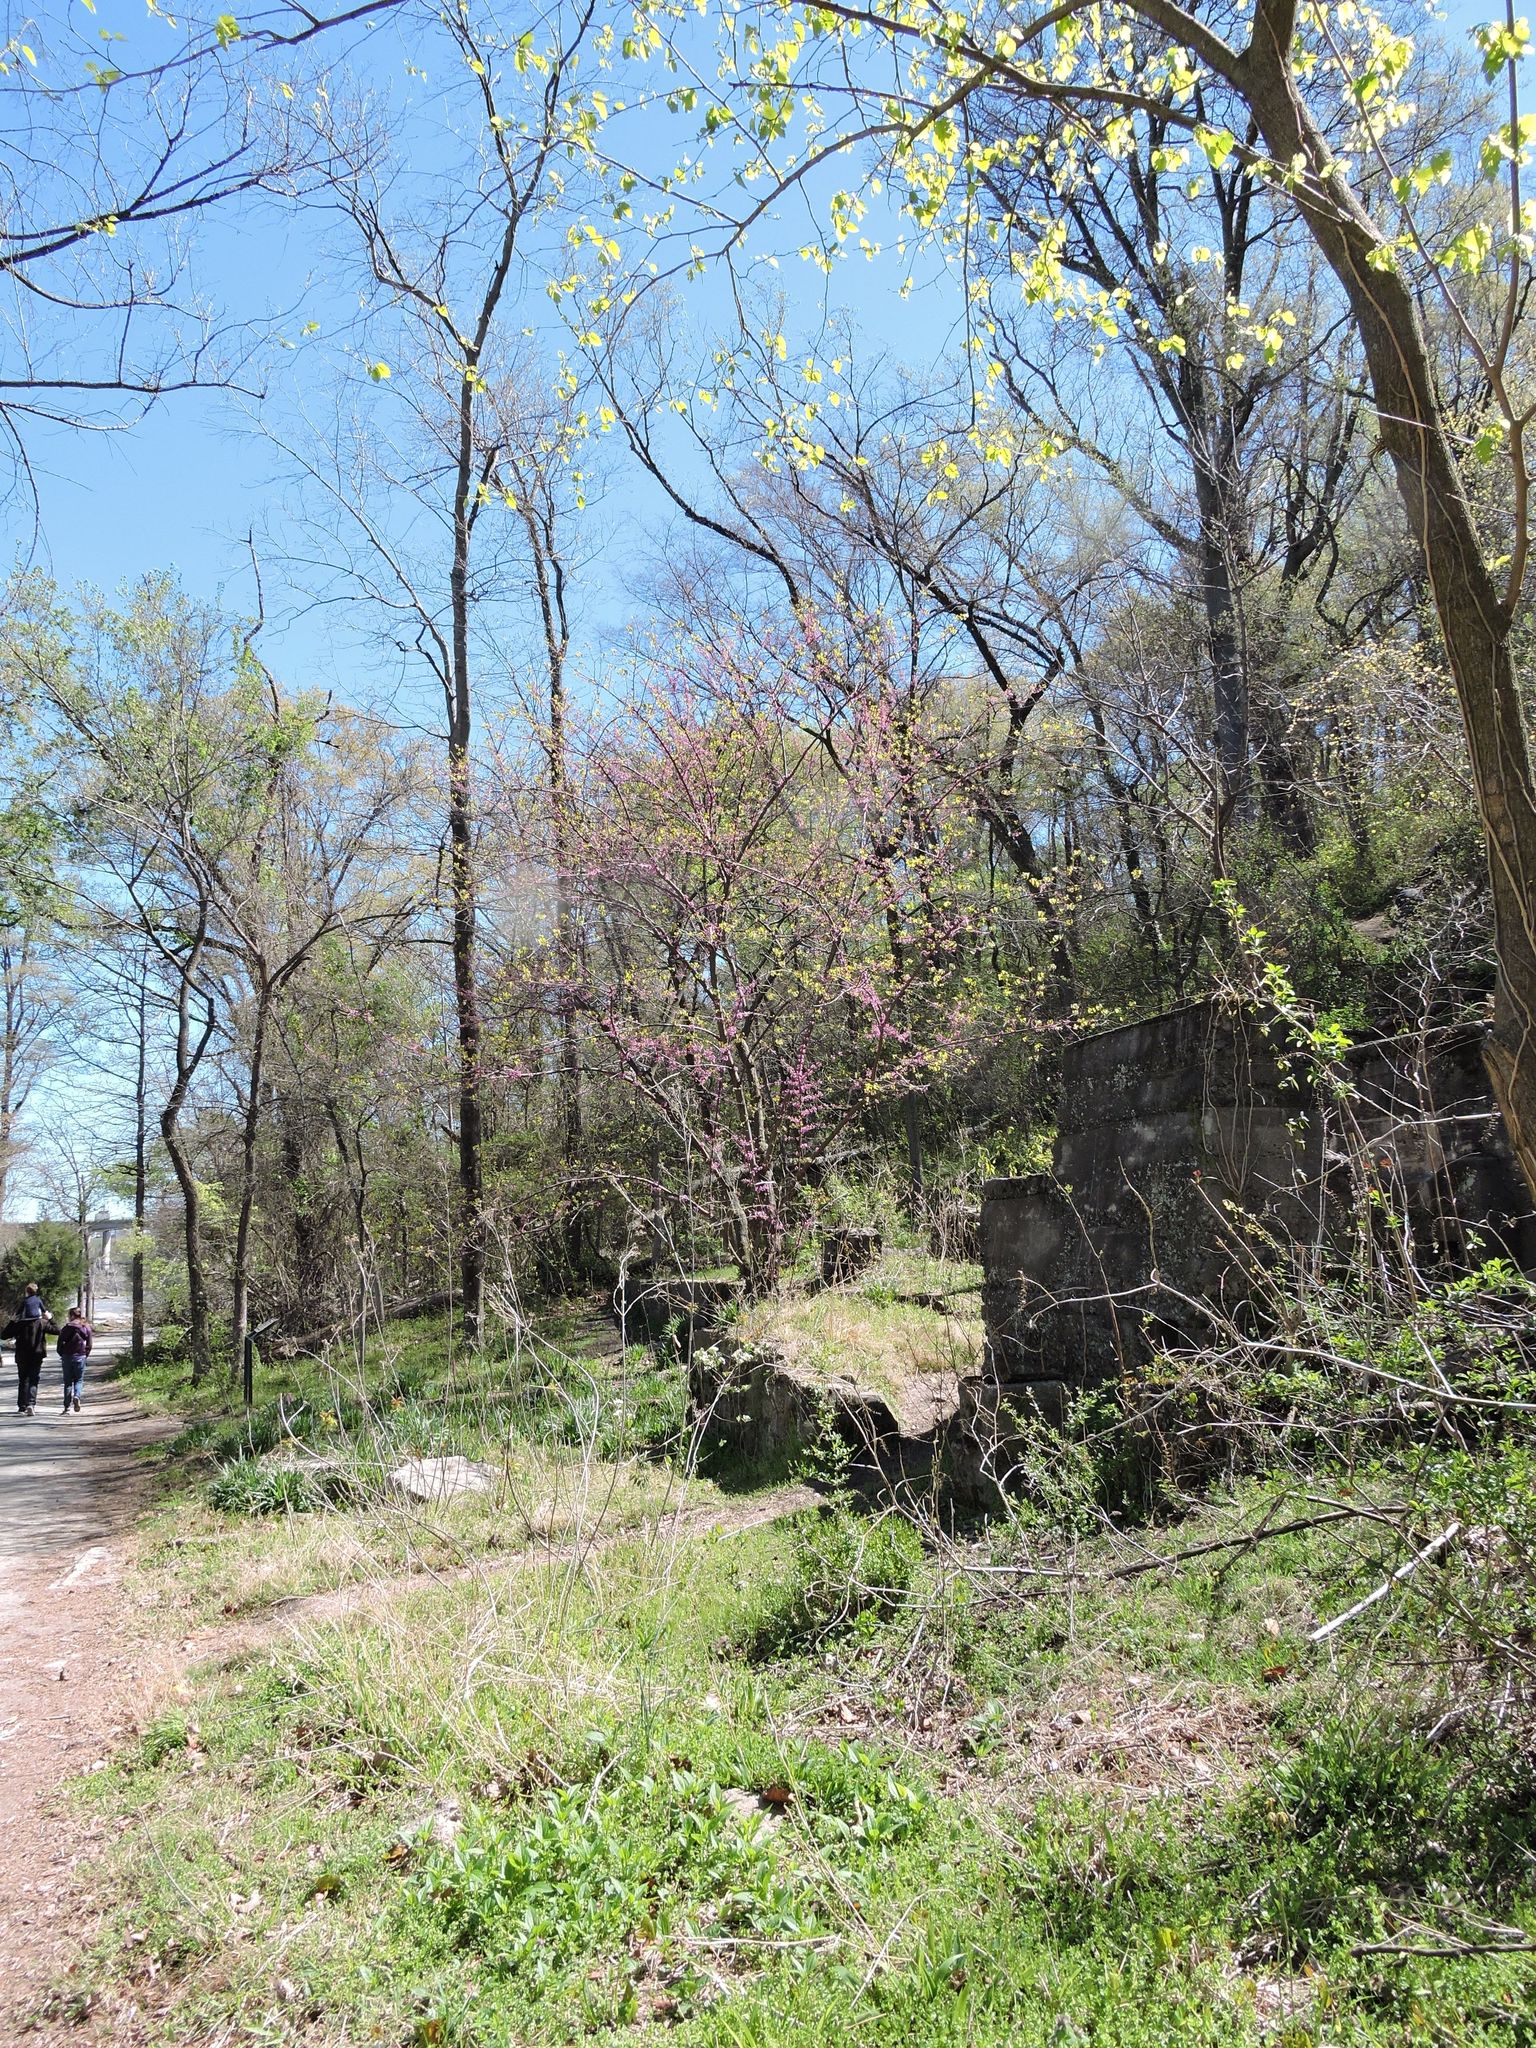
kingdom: Plantae
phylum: Tracheophyta
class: Magnoliopsida
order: Fabales
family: Fabaceae
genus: Cercis
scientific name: Cercis canadensis
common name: Eastern redbud
